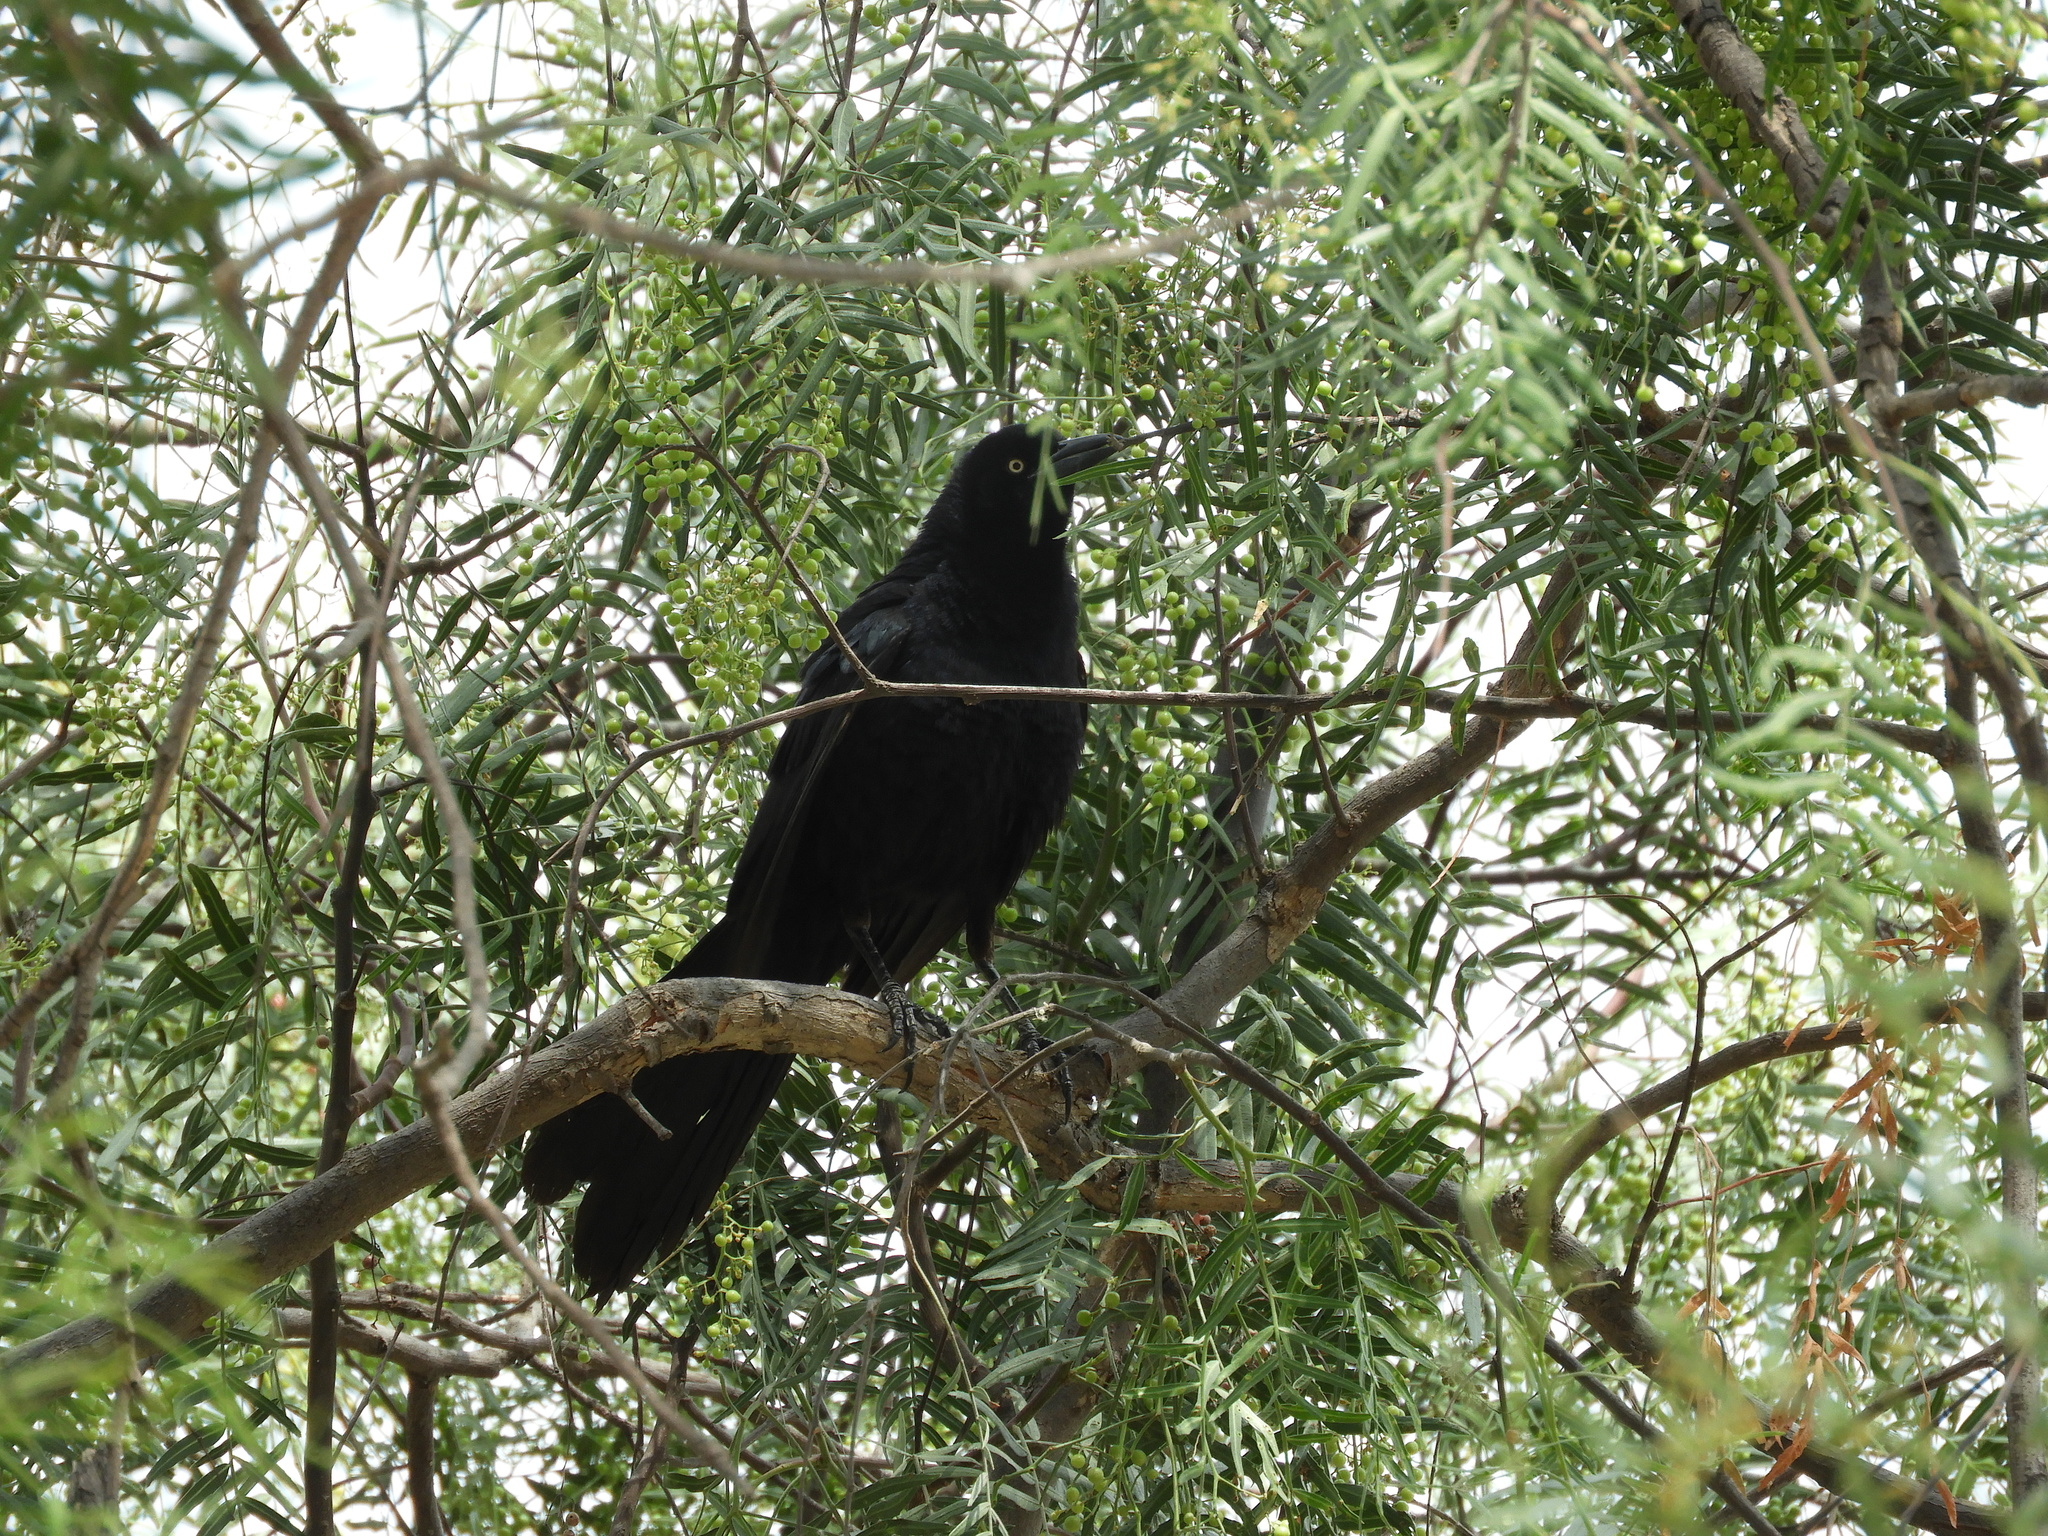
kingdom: Animalia
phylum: Chordata
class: Aves
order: Passeriformes
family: Icteridae
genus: Quiscalus
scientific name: Quiscalus mexicanus
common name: Great-tailed grackle
